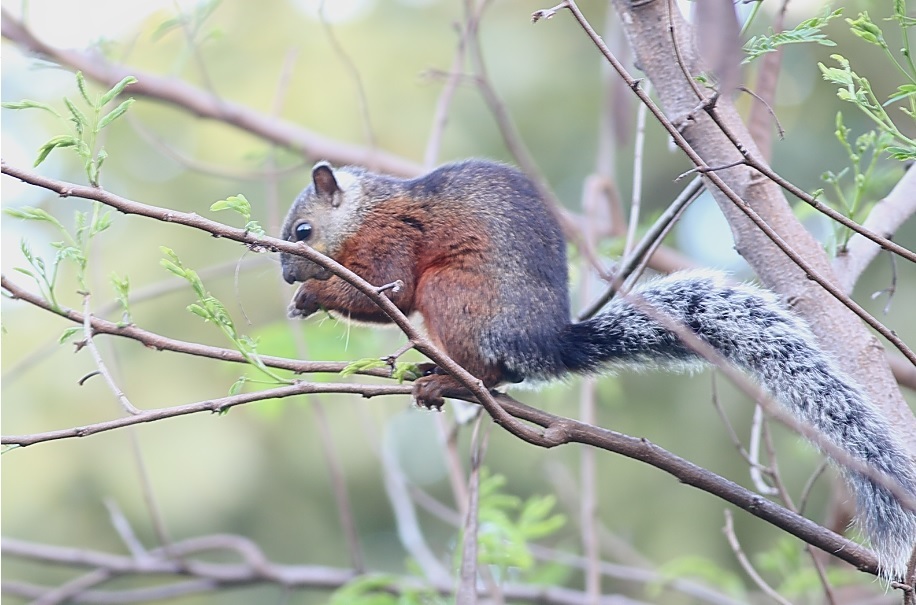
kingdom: Animalia
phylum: Chordata
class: Mammalia
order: Rodentia
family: Sciuridae
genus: Sciurus
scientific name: Sciurus variegatoides
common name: Variegated squirrel
